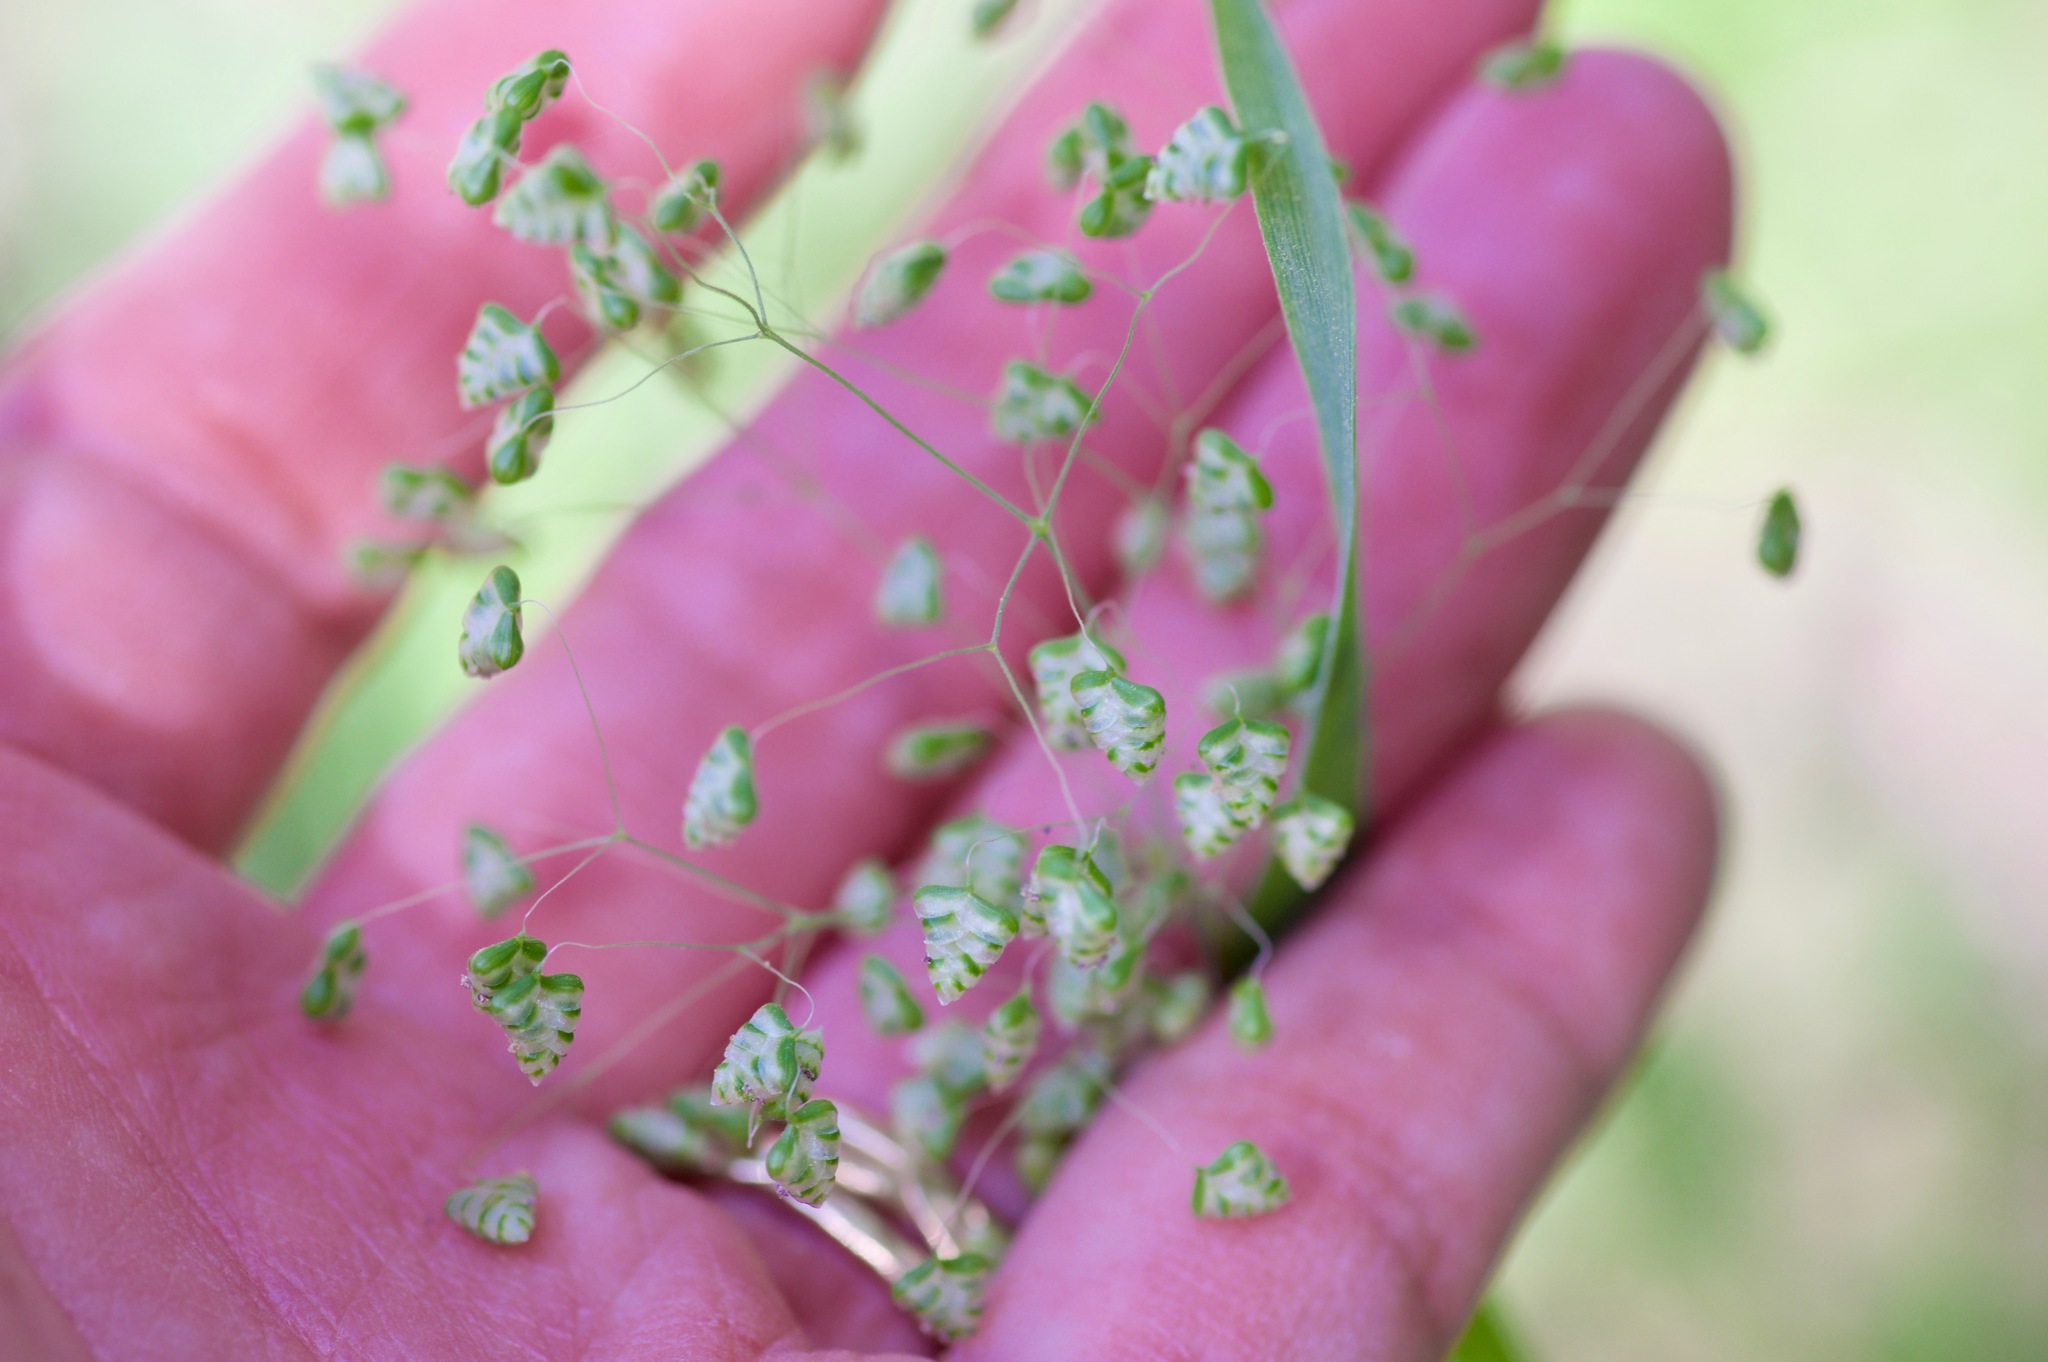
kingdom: Plantae
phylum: Tracheophyta
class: Liliopsida
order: Poales
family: Poaceae
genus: Briza
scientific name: Briza minor
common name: Lesser quaking-grass
